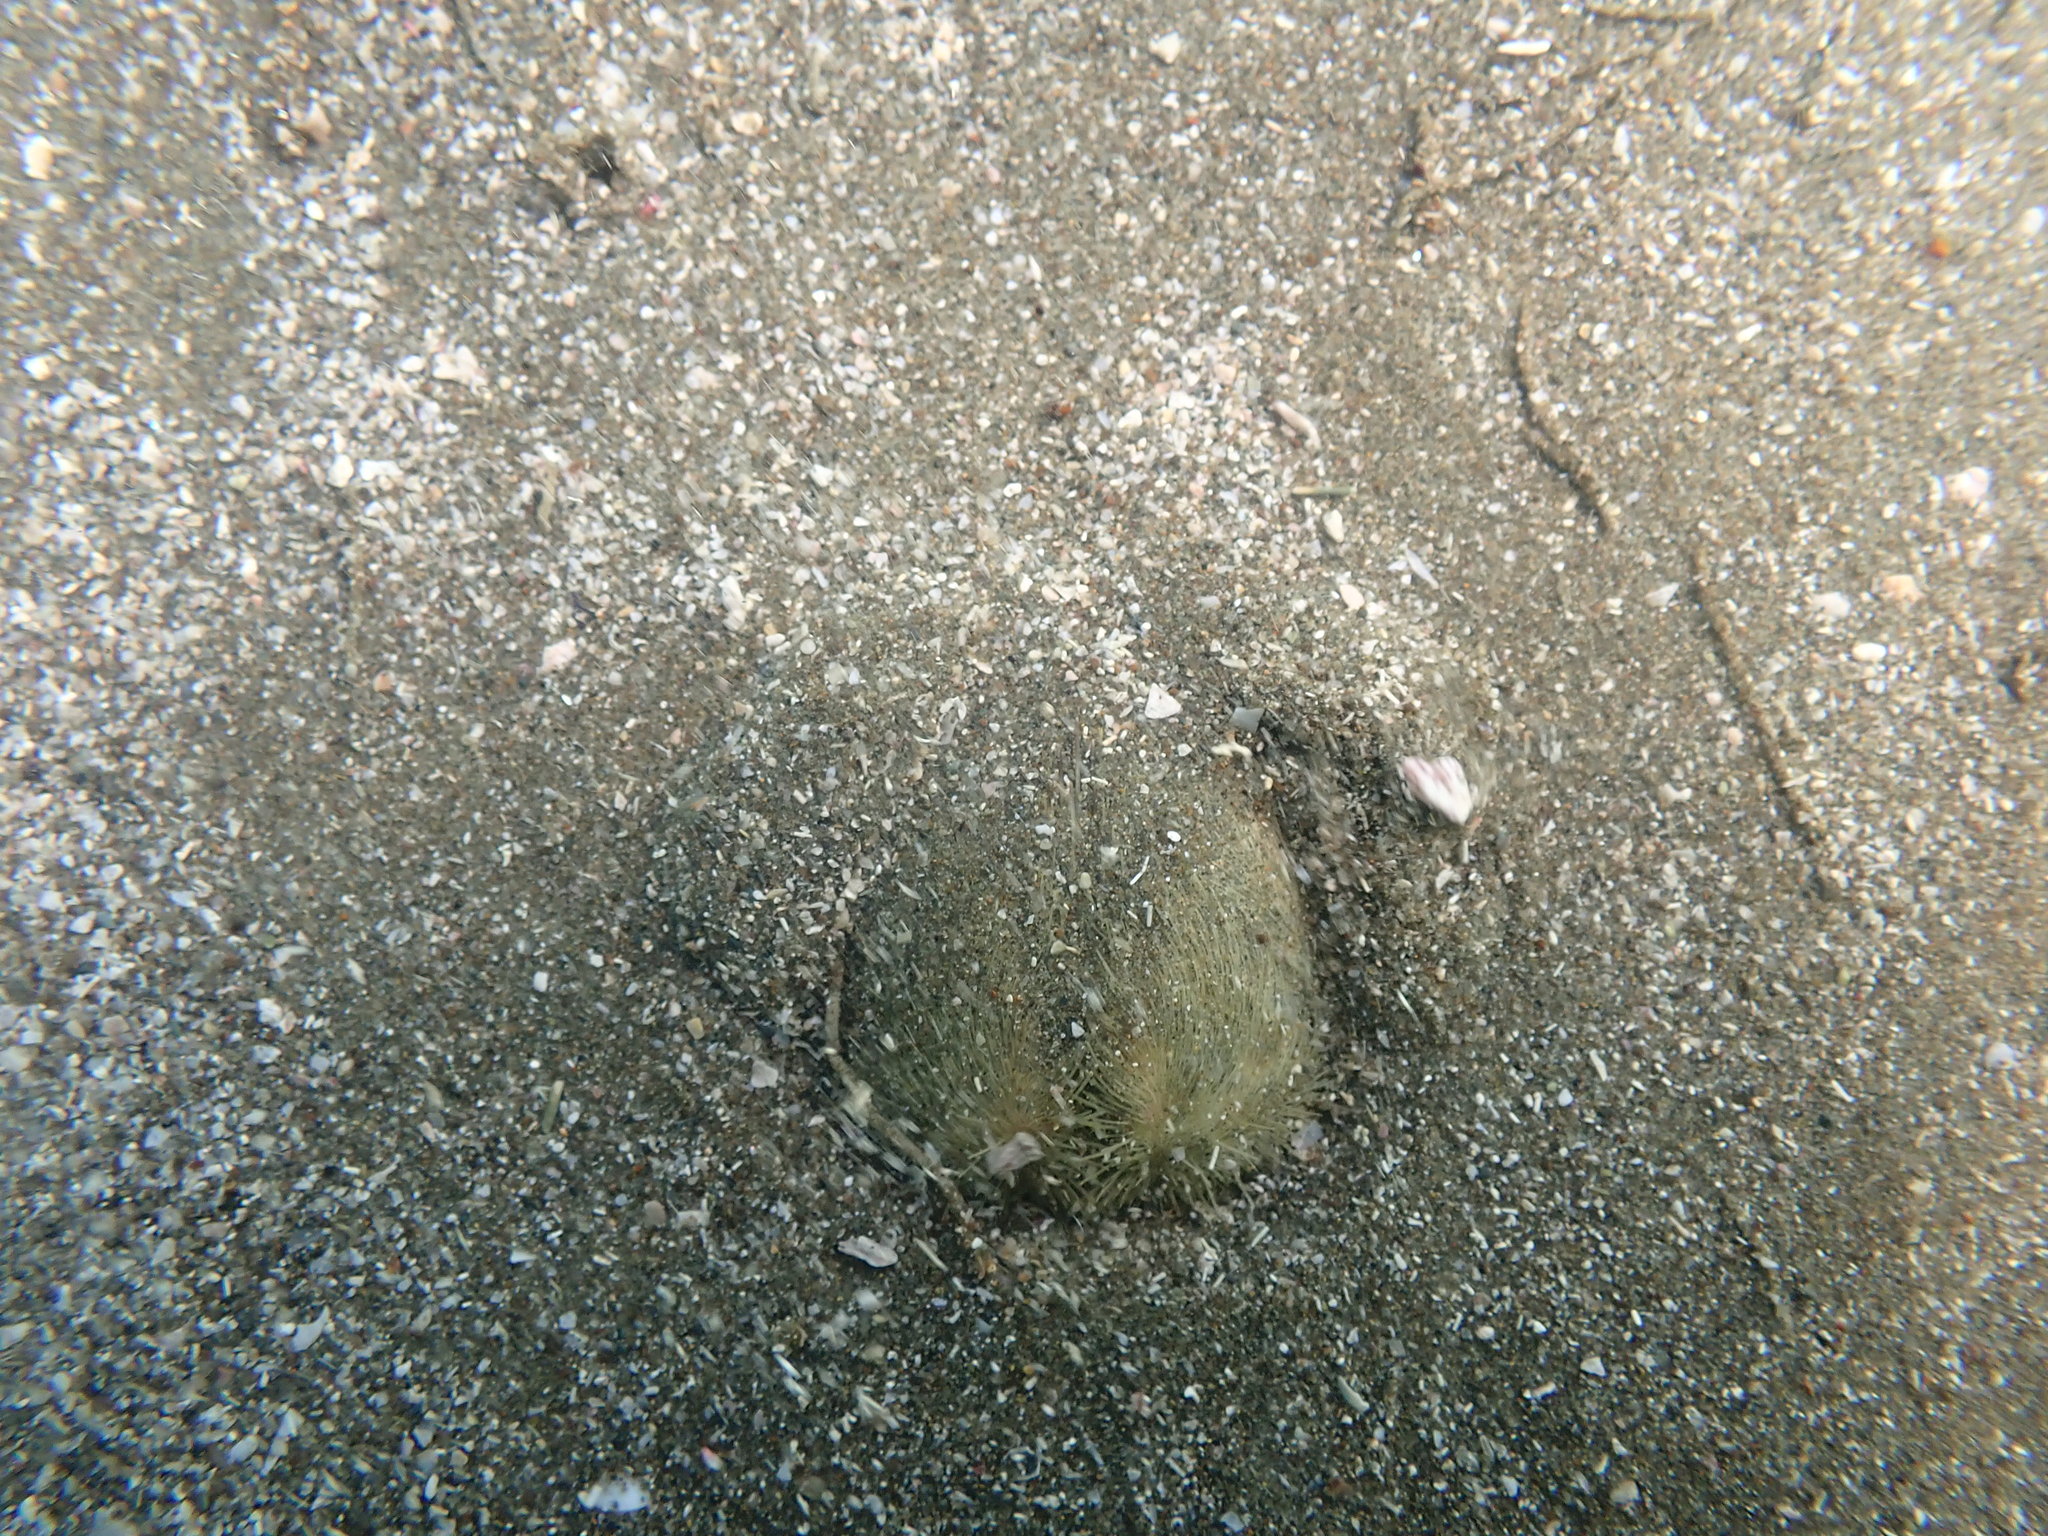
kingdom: Animalia
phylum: Echinodermata
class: Echinoidea
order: Spatangoida
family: Loveniidae
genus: Echinocardium
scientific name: Echinocardium cordatum
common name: Heart-urchin
